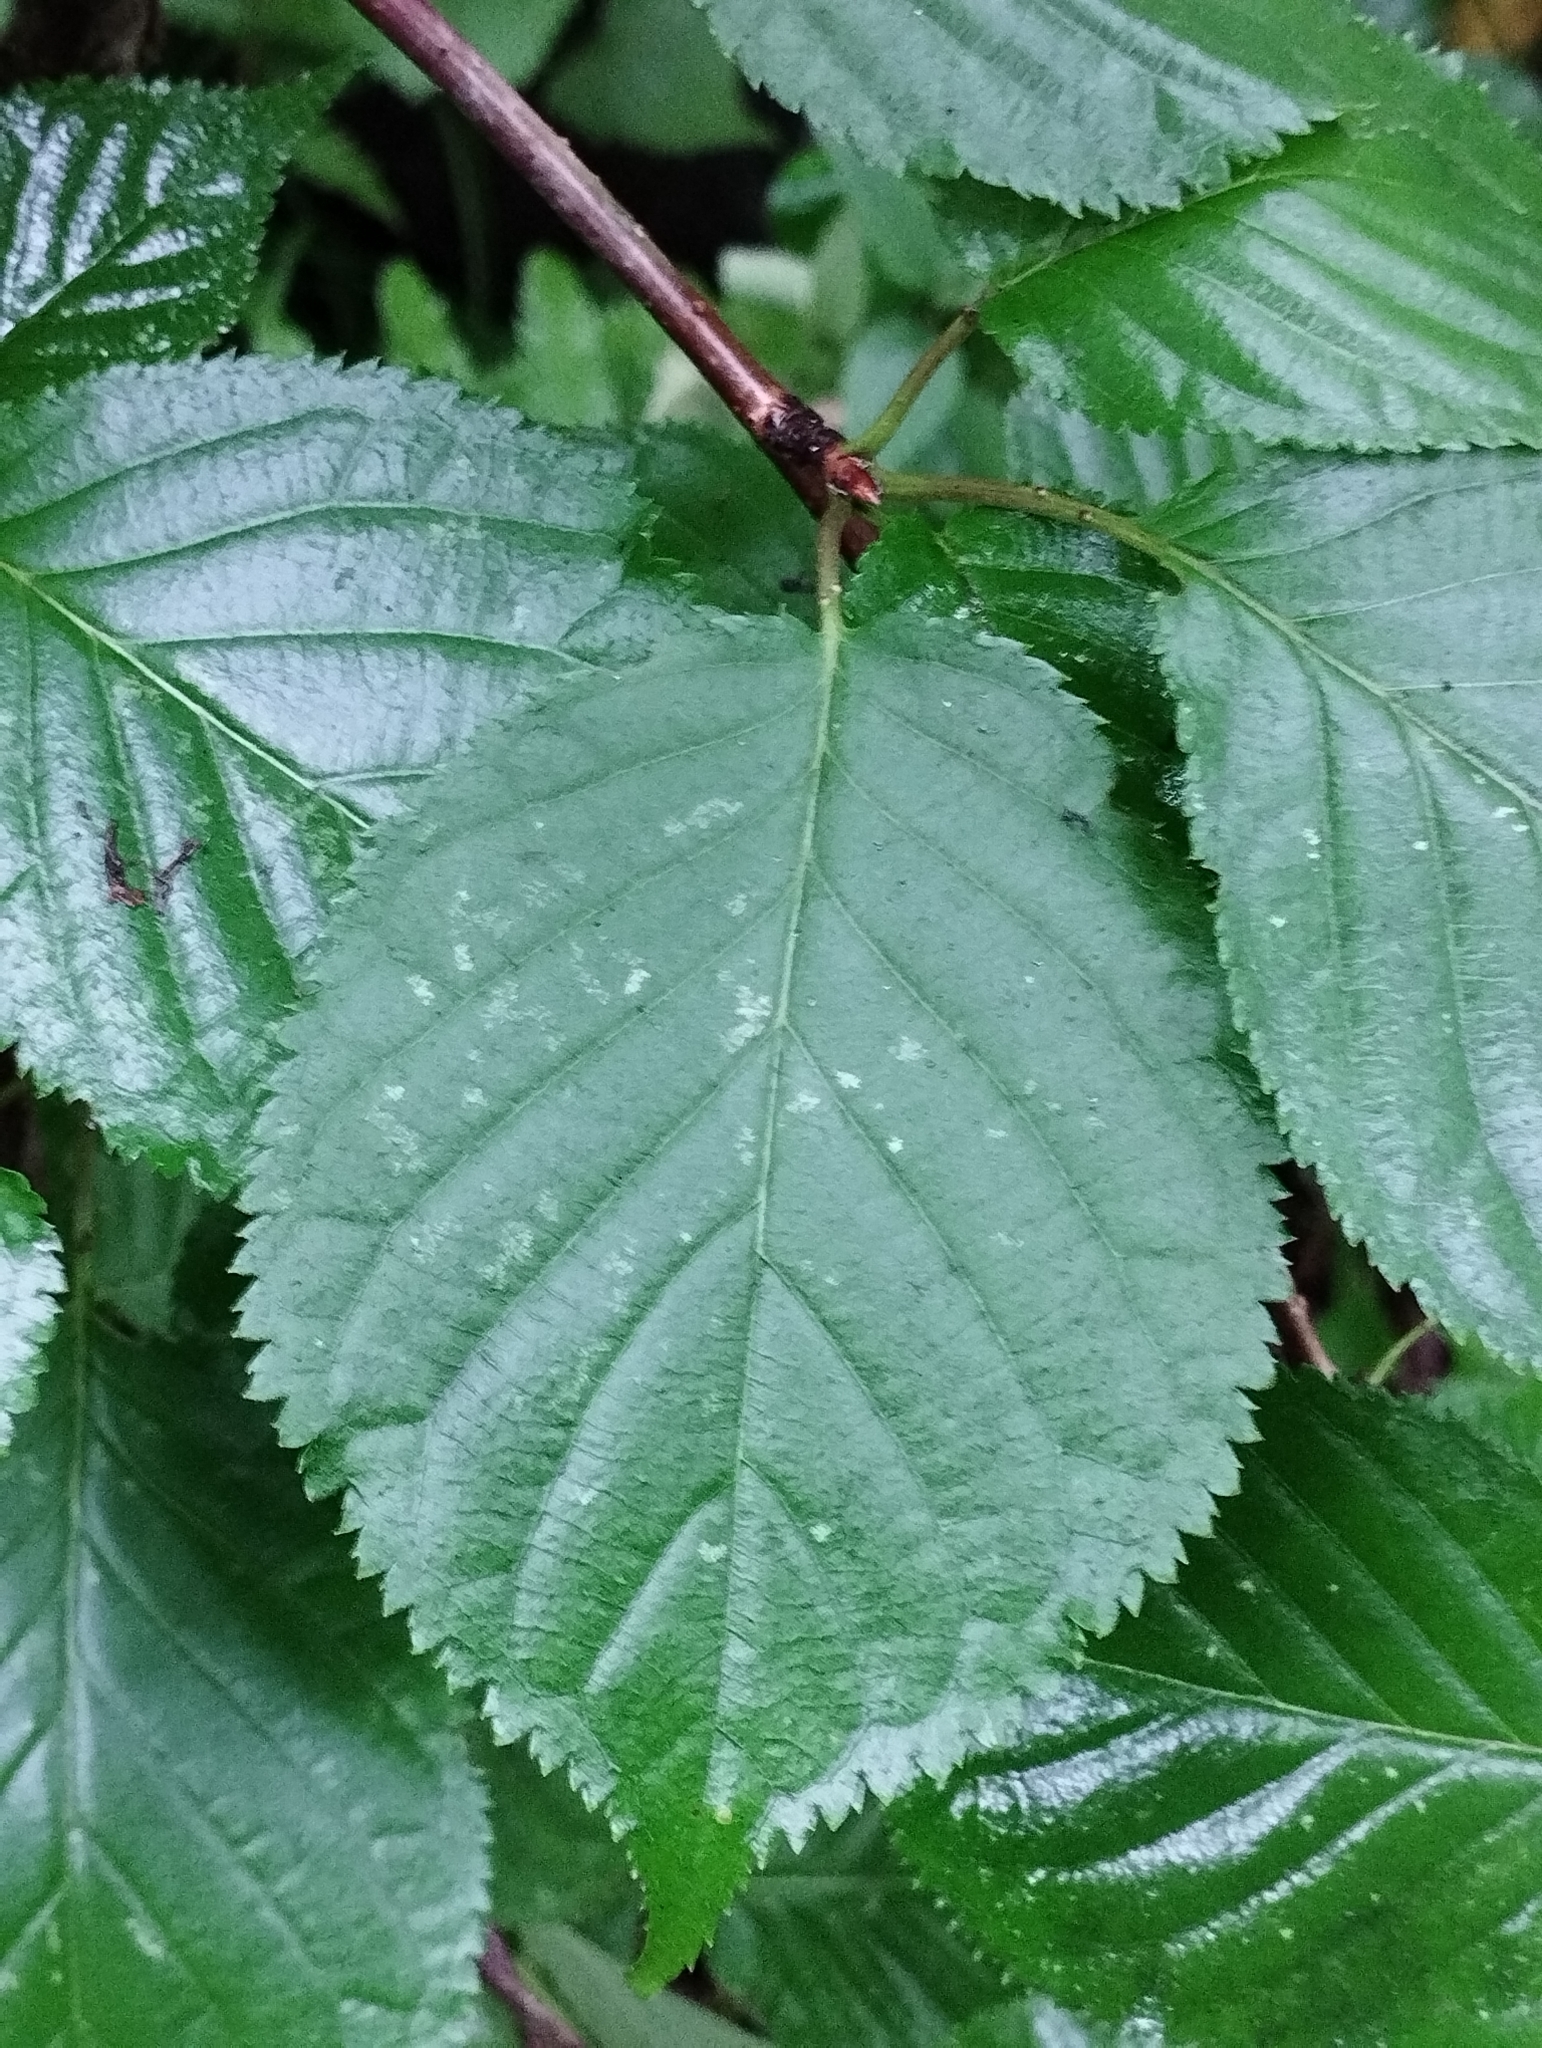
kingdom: Plantae
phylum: Tracheophyta
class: Magnoliopsida
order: Rosales
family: Rosaceae
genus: Prunus
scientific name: Prunus sargentii
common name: Sargent cherry
